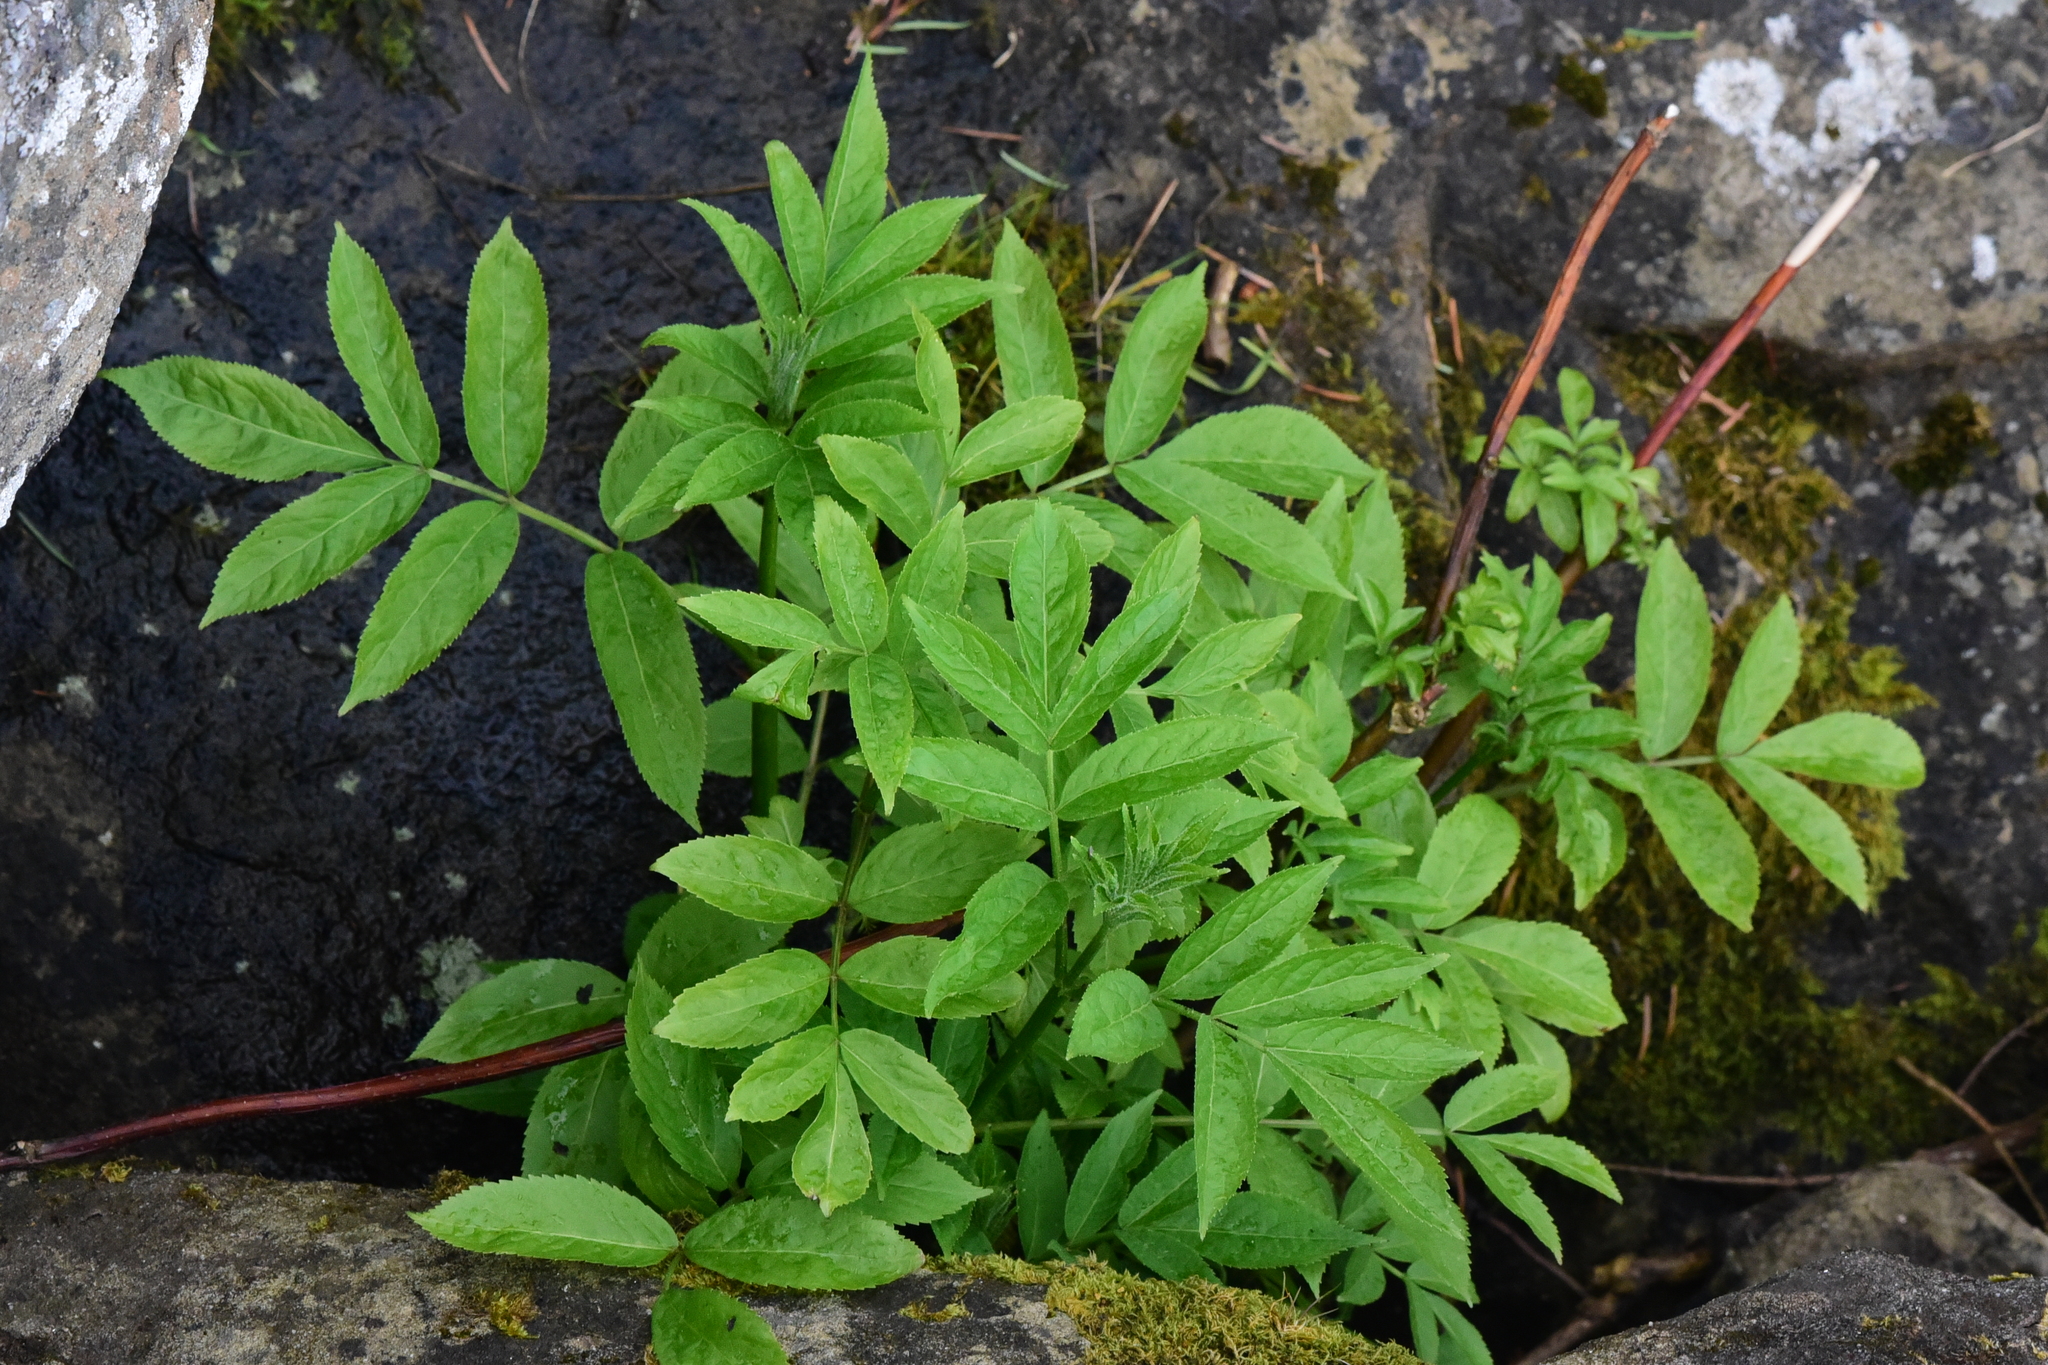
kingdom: Plantae
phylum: Tracheophyta
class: Magnoliopsida
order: Dipsacales
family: Viburnaceae
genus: Sambucus
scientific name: Sambucus racemosa
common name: Red-berried elder
